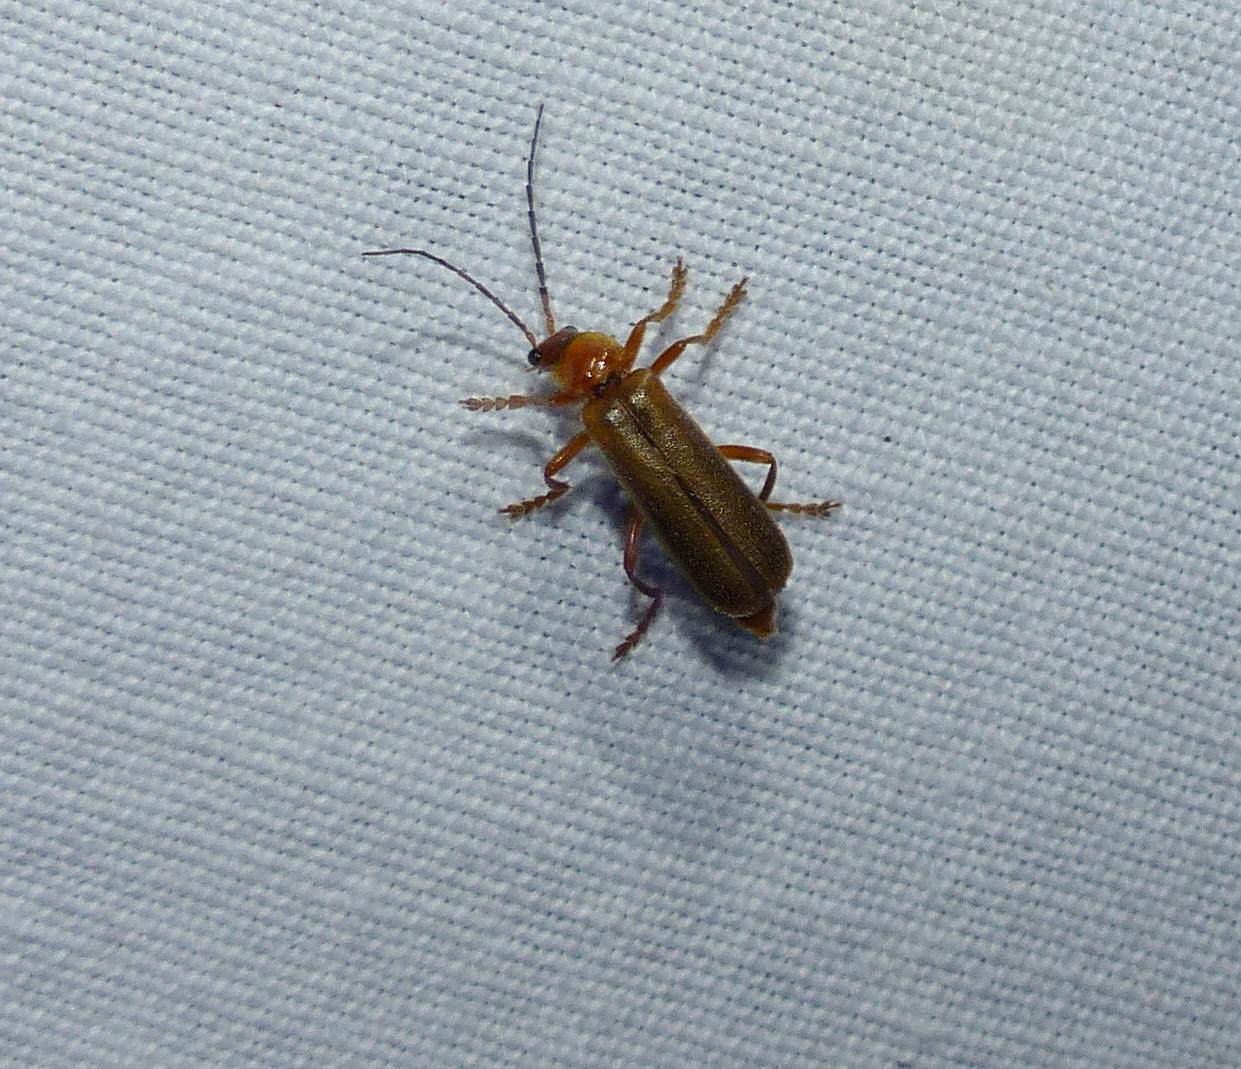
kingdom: Animalia
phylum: Arthropoda
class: Insecta
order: Coleoptera
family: Cantharidae
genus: Cantharis
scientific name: Cantharis rufa
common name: Red-spotted soldier beetle
